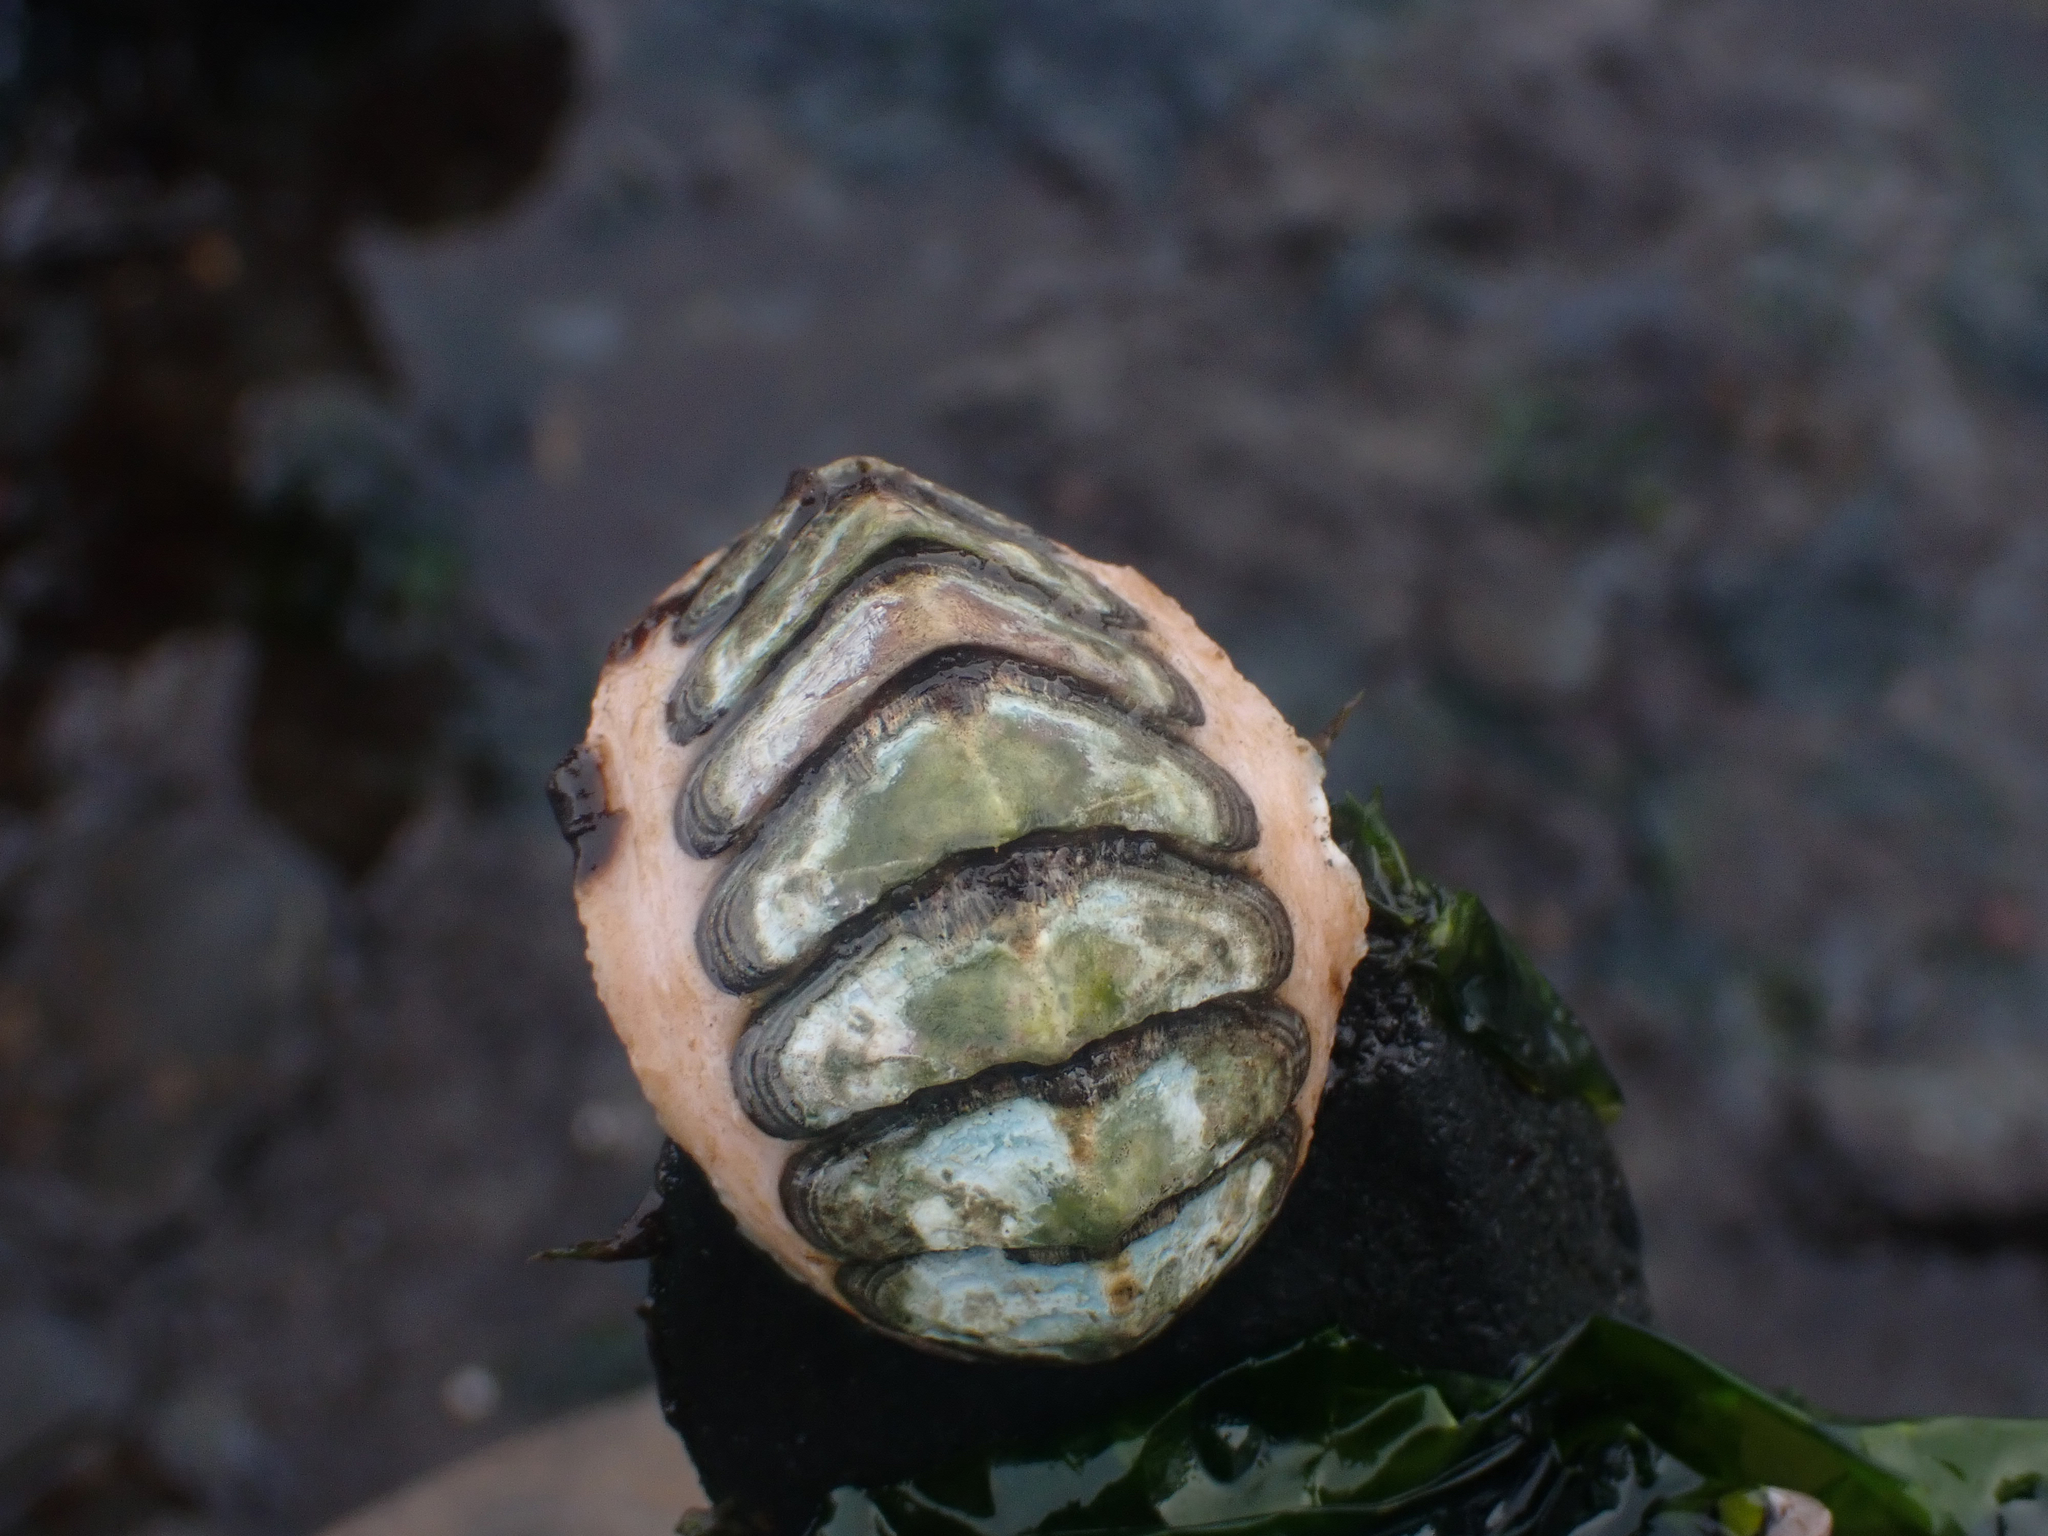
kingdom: Animalia
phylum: Mollusca
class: Polyplacophora
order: Chitonida
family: Mopaliidae
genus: Mopalia
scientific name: Mopalia
